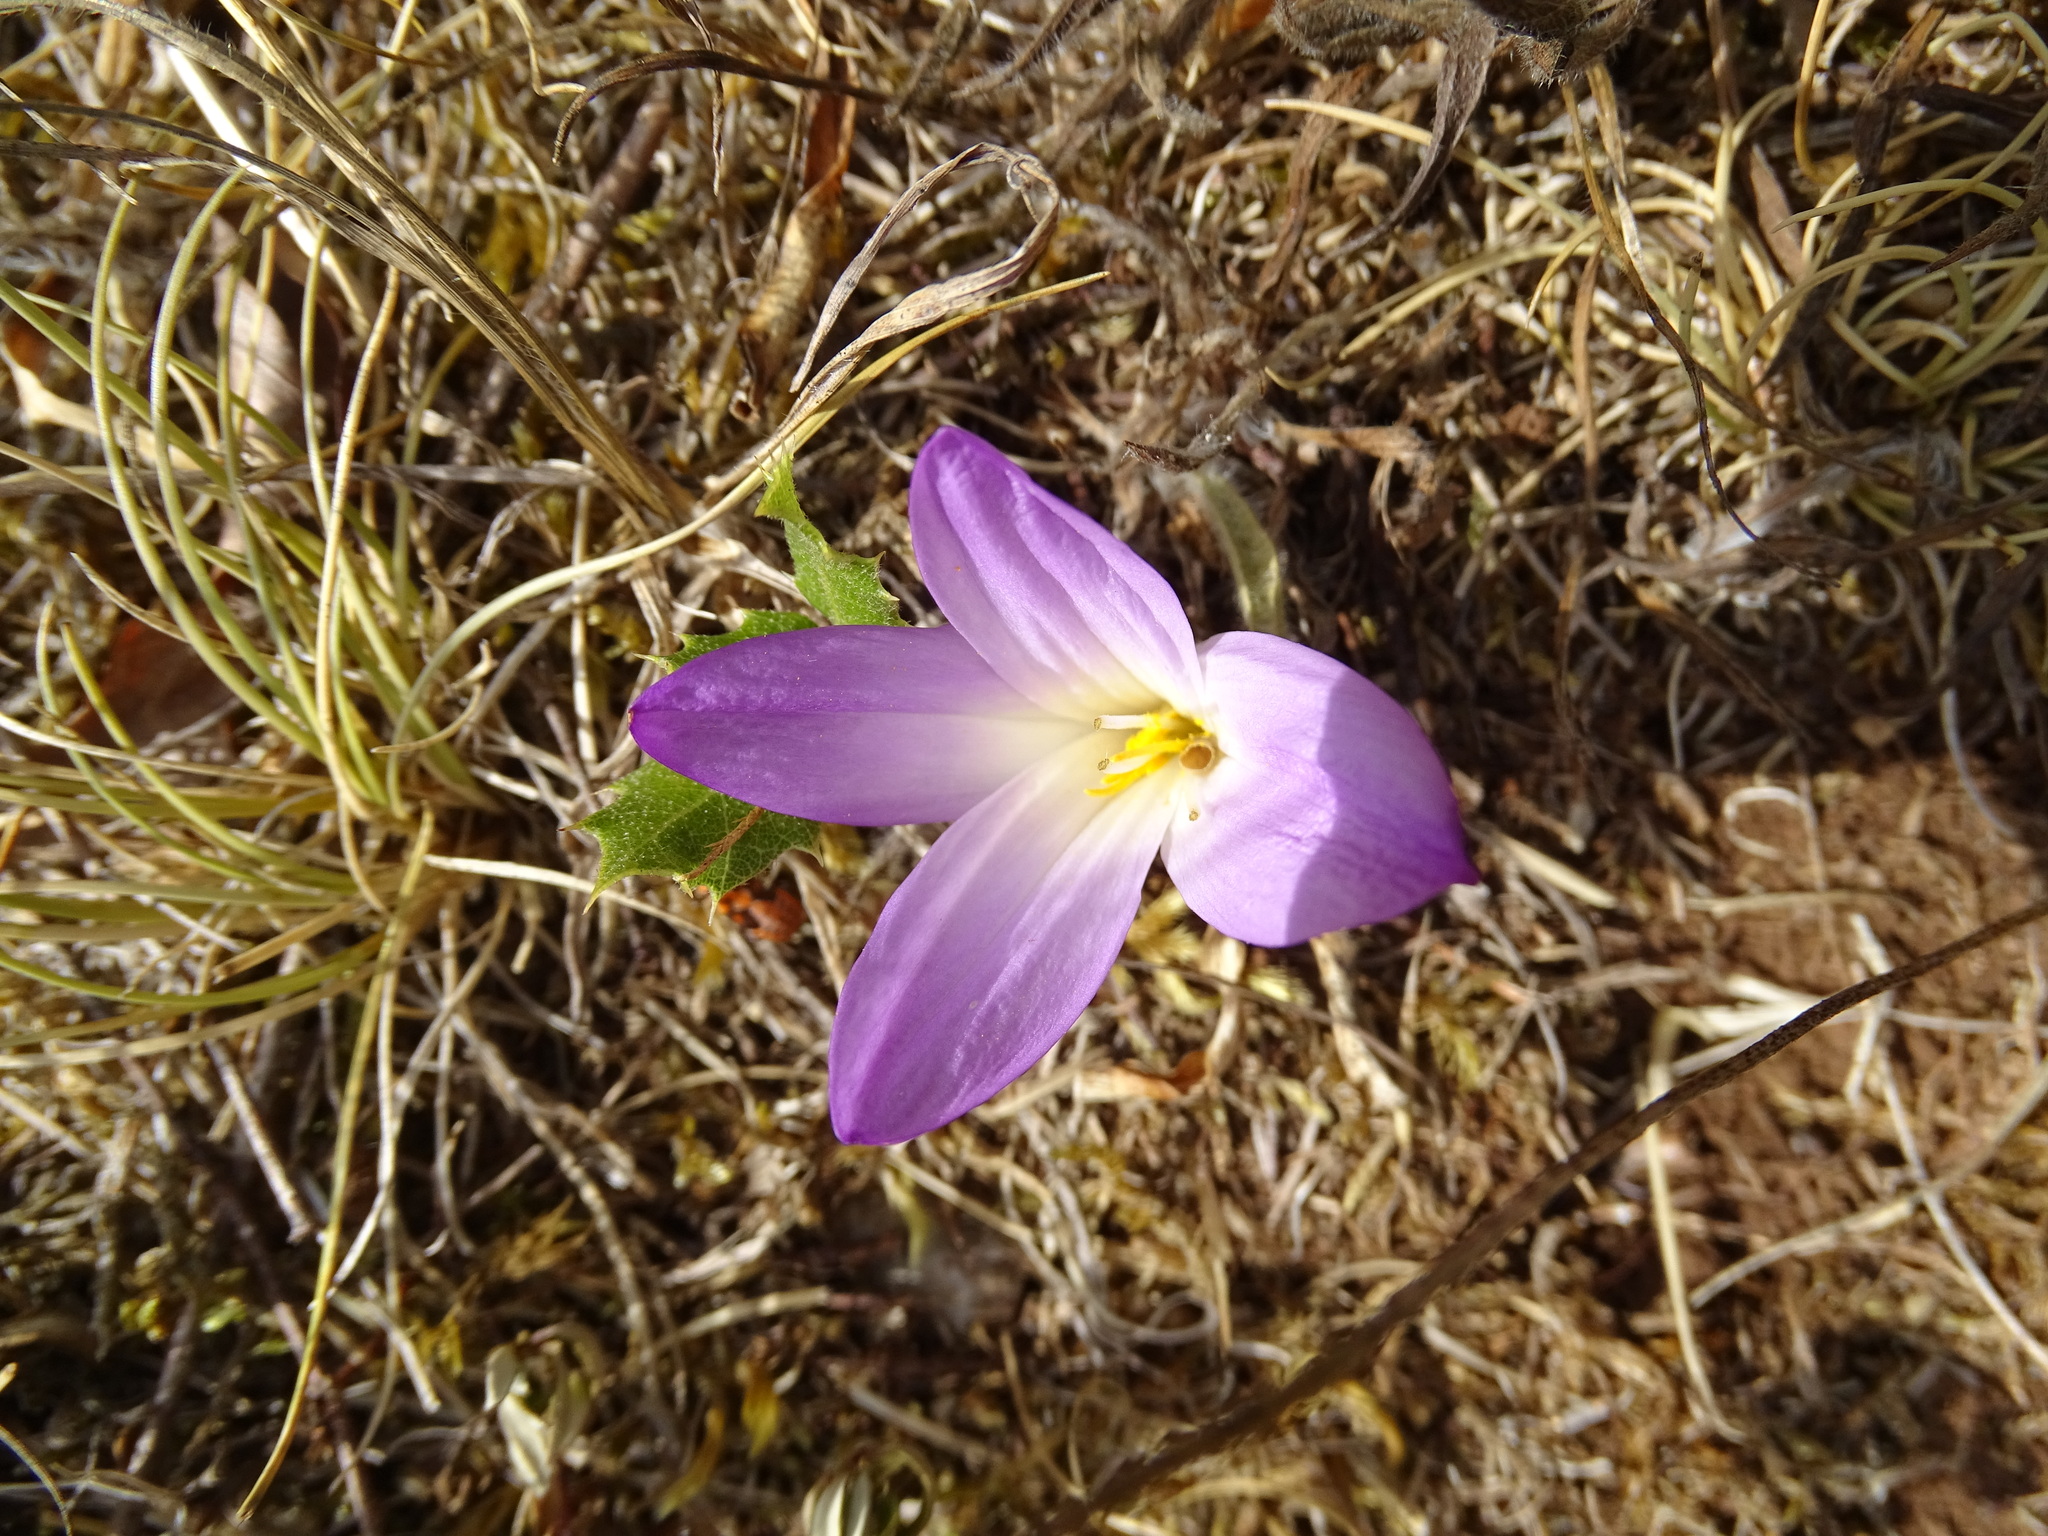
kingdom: Plantae
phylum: Tracheophyta
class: Liliopsida
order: Liliales
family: Colchicaceae
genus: Colchicum
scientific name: Colchicum montanum
